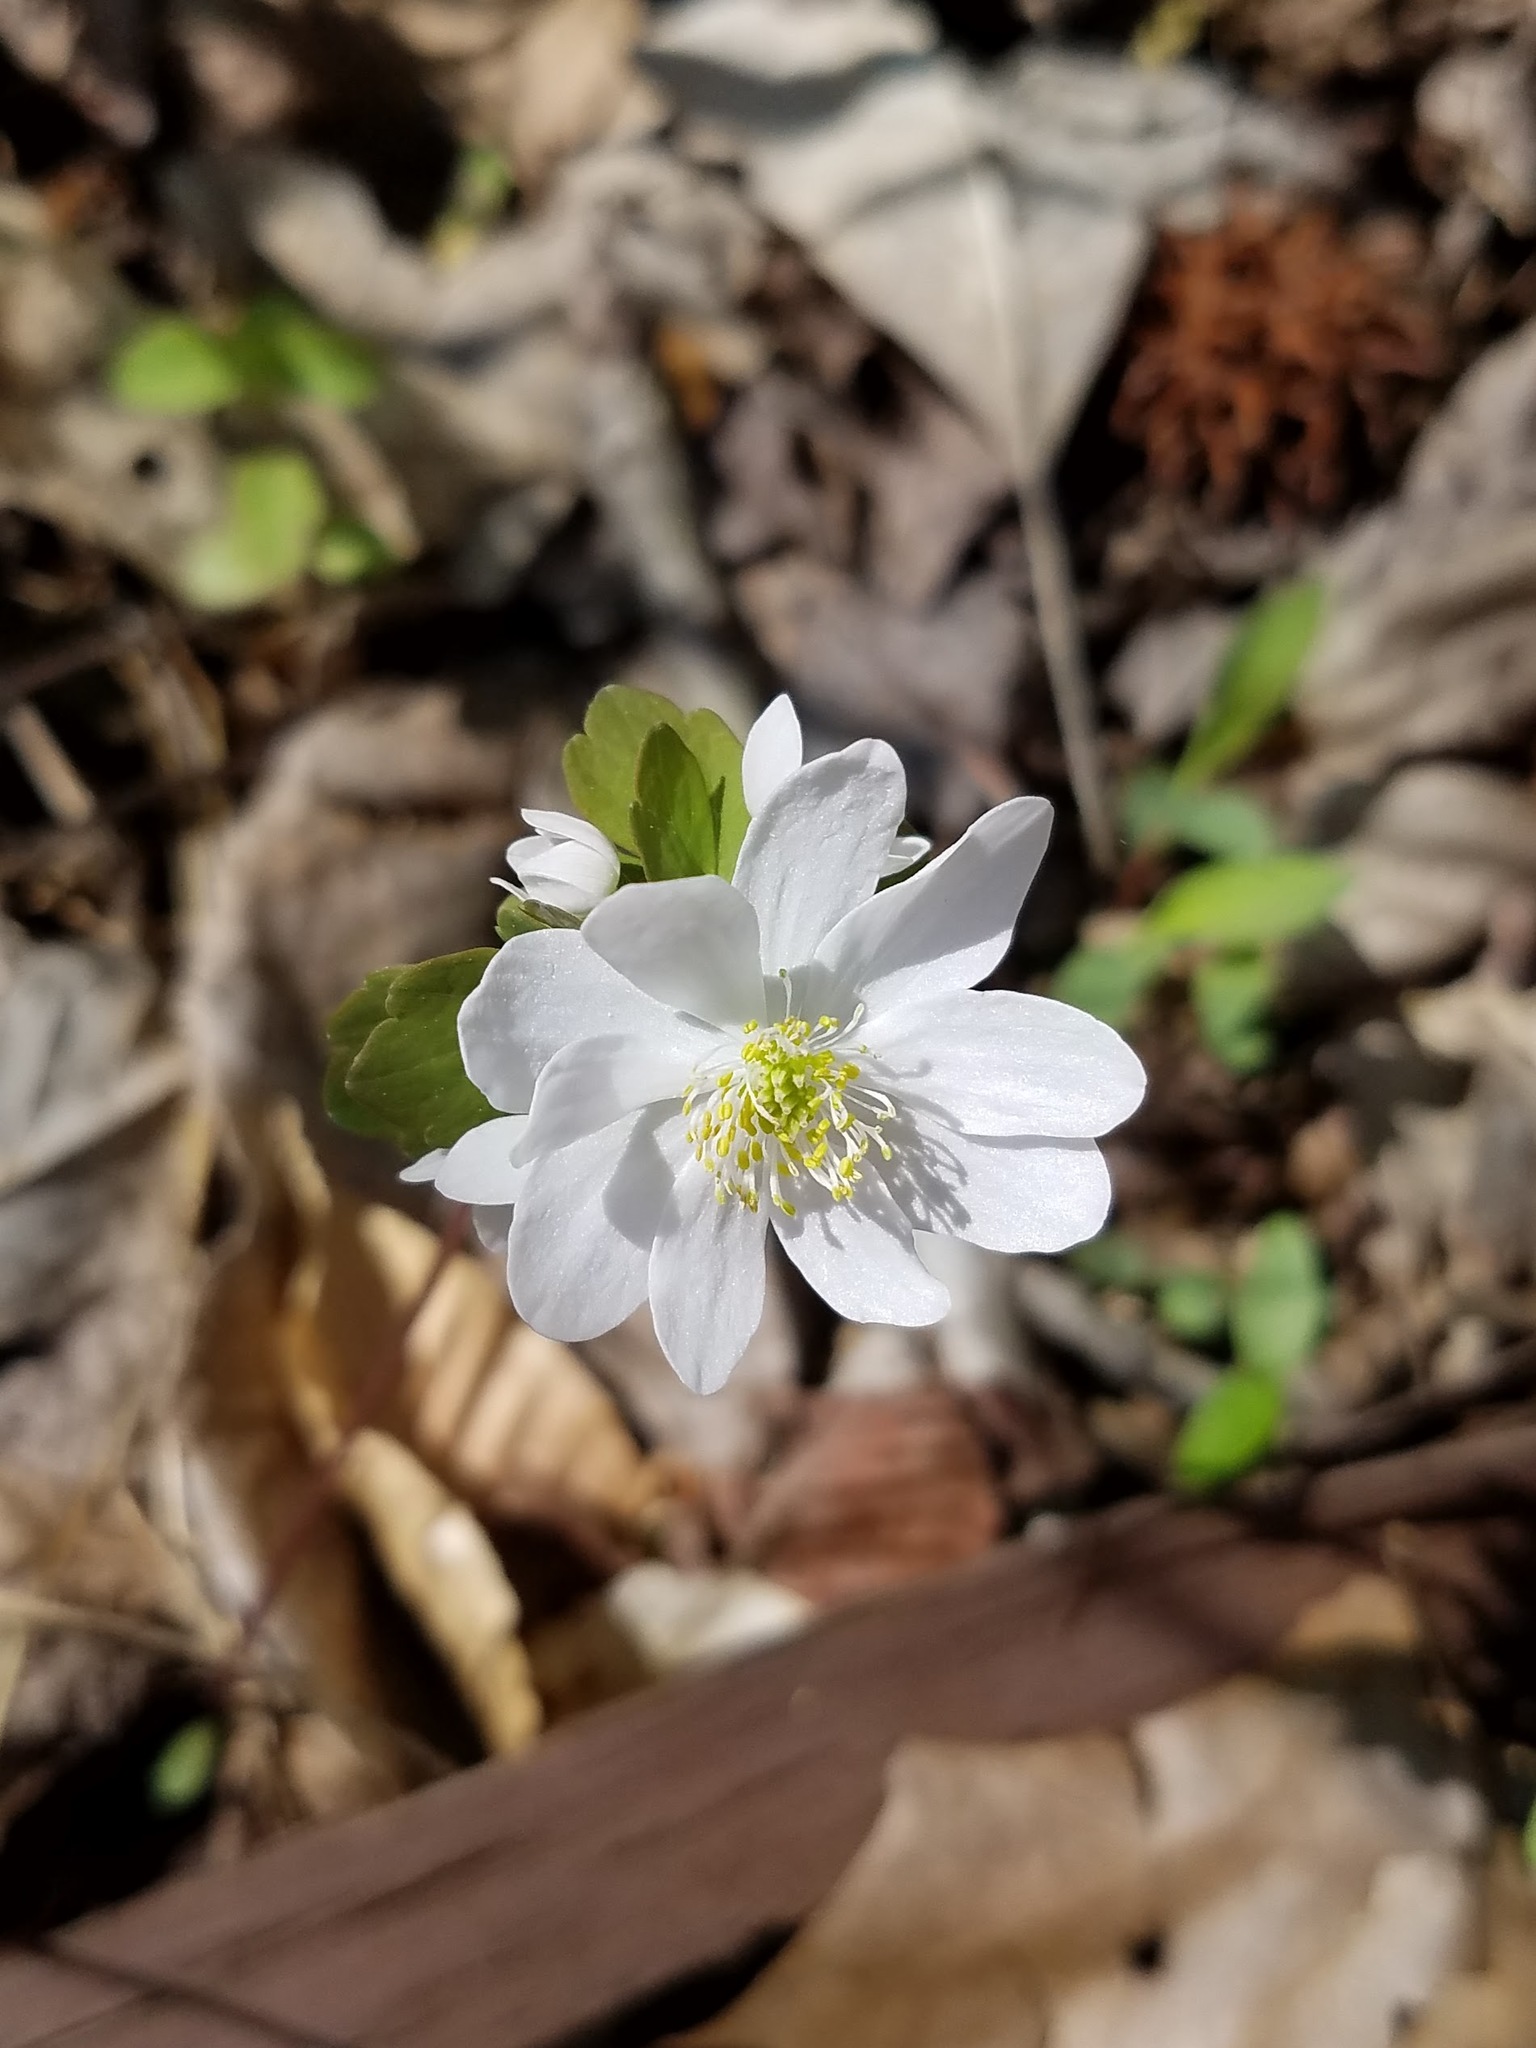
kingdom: Plantae
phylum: Tracheophyta
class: Magnoliopsida
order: Ranunculales
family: Ranunculaceae
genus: Thalictrum
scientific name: Thalictrum thalictroides
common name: Rue-anemone
